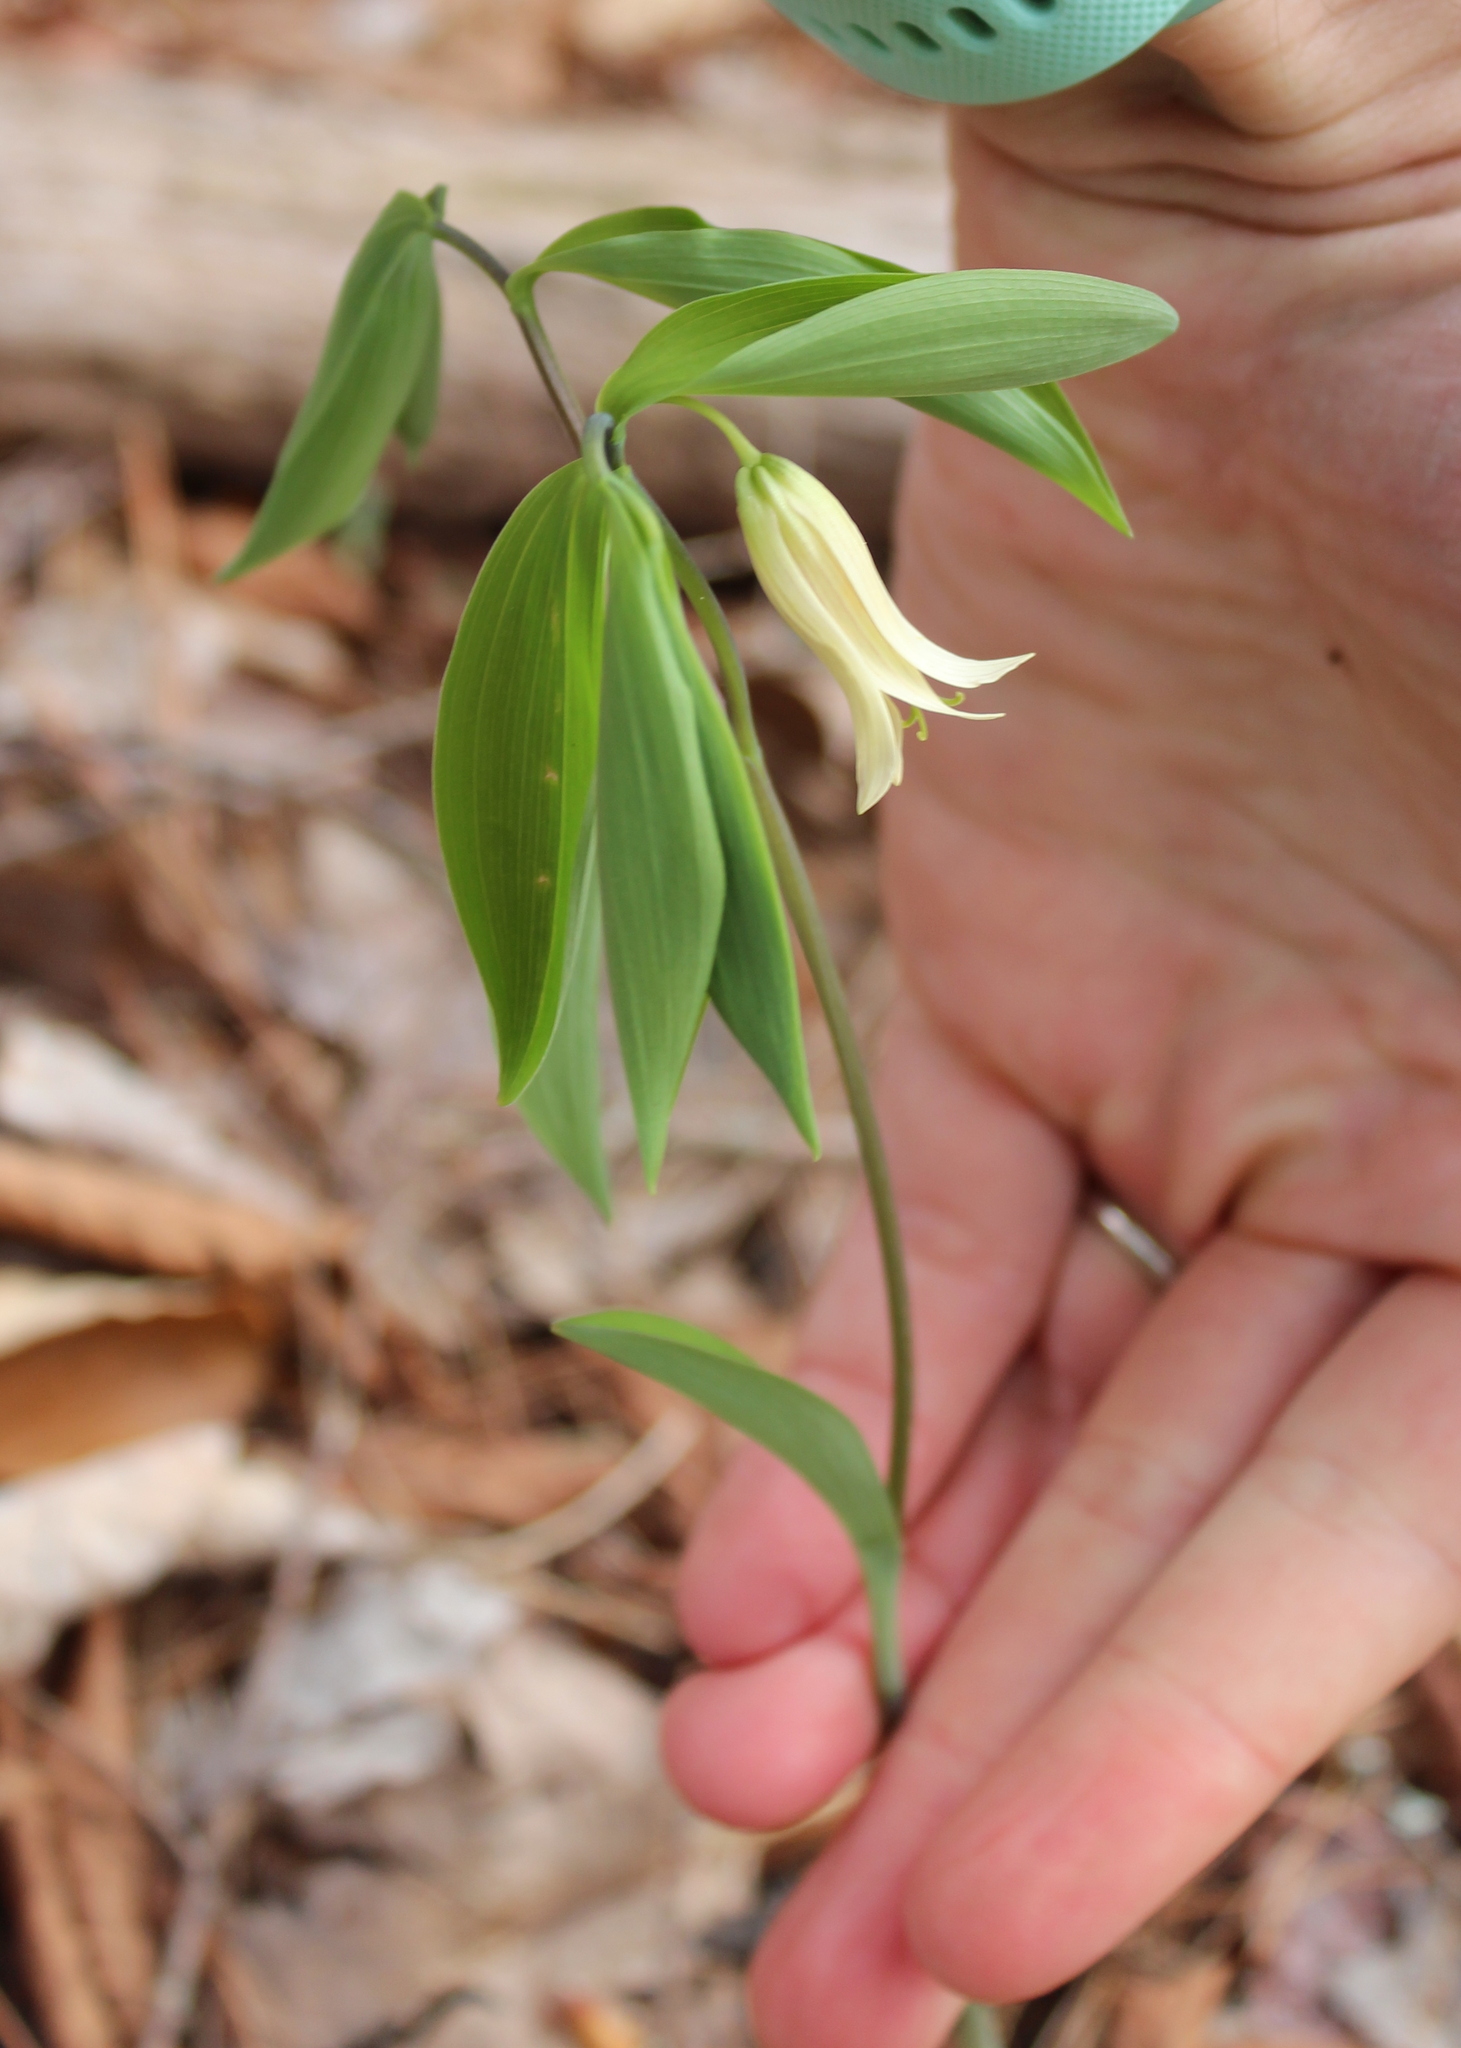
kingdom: Plantae
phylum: Tracheophyta
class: Liliopsida
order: Liliales
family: Colchicaceae
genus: Uvularia
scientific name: Uvularia sessilifolia
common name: Straw-lily
